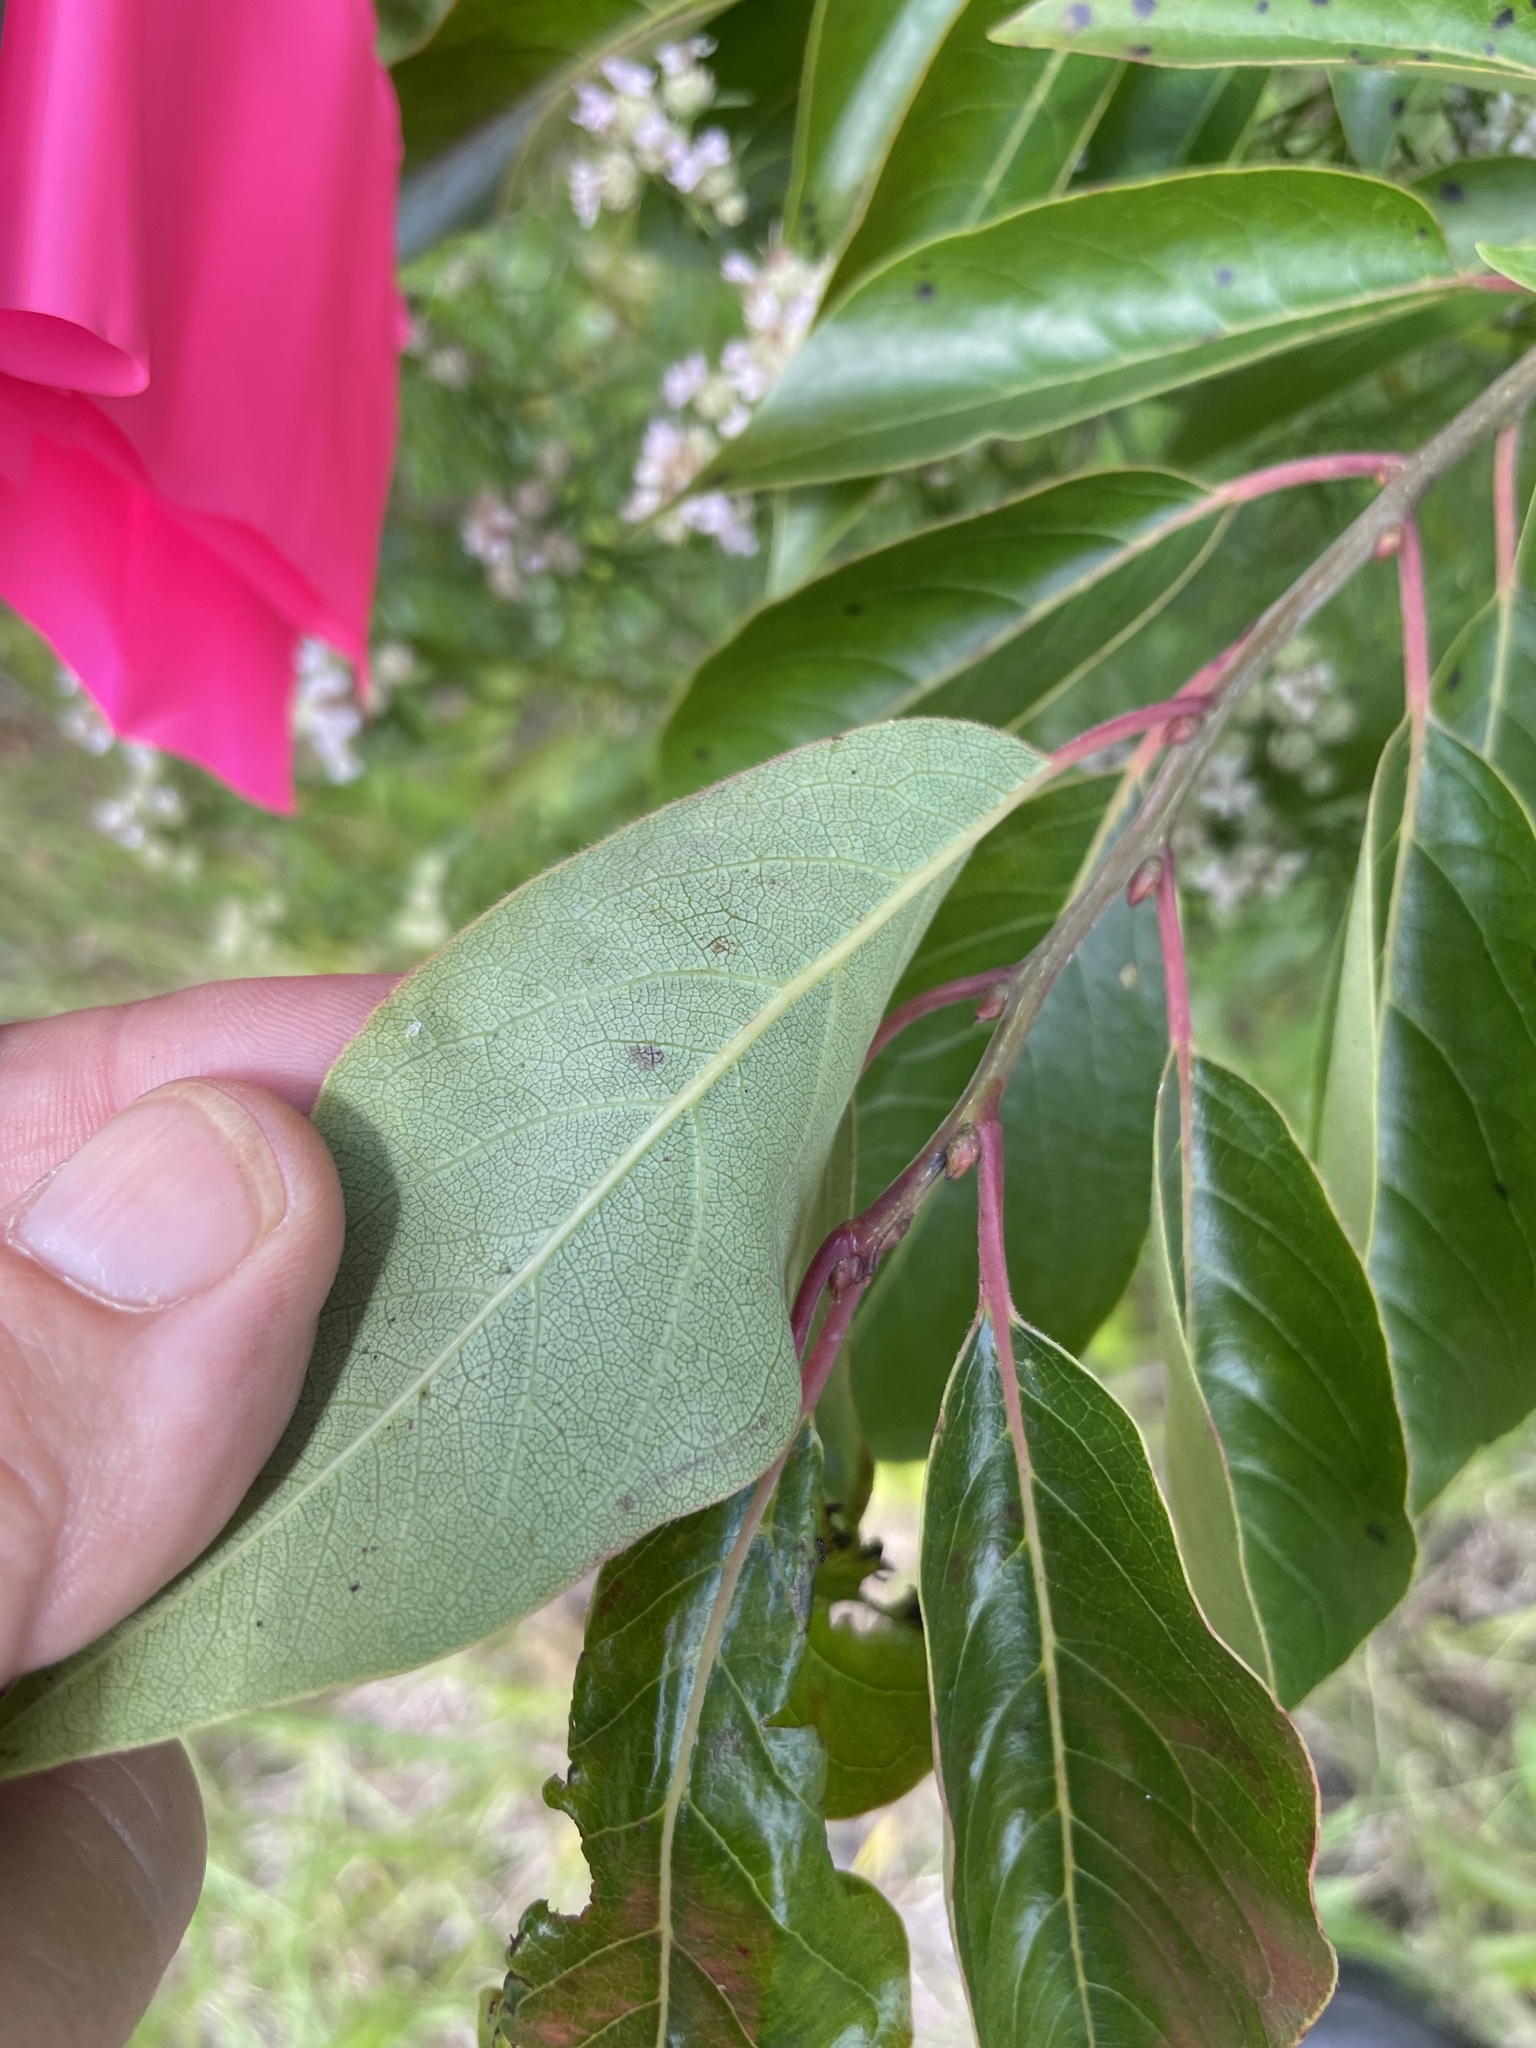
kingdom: Plantae
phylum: Tracheophyta
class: Magnoliopsida
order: Ericales
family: Ebenaceae
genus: Diospyros
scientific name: Diospyros virginiana
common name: Persimmon
